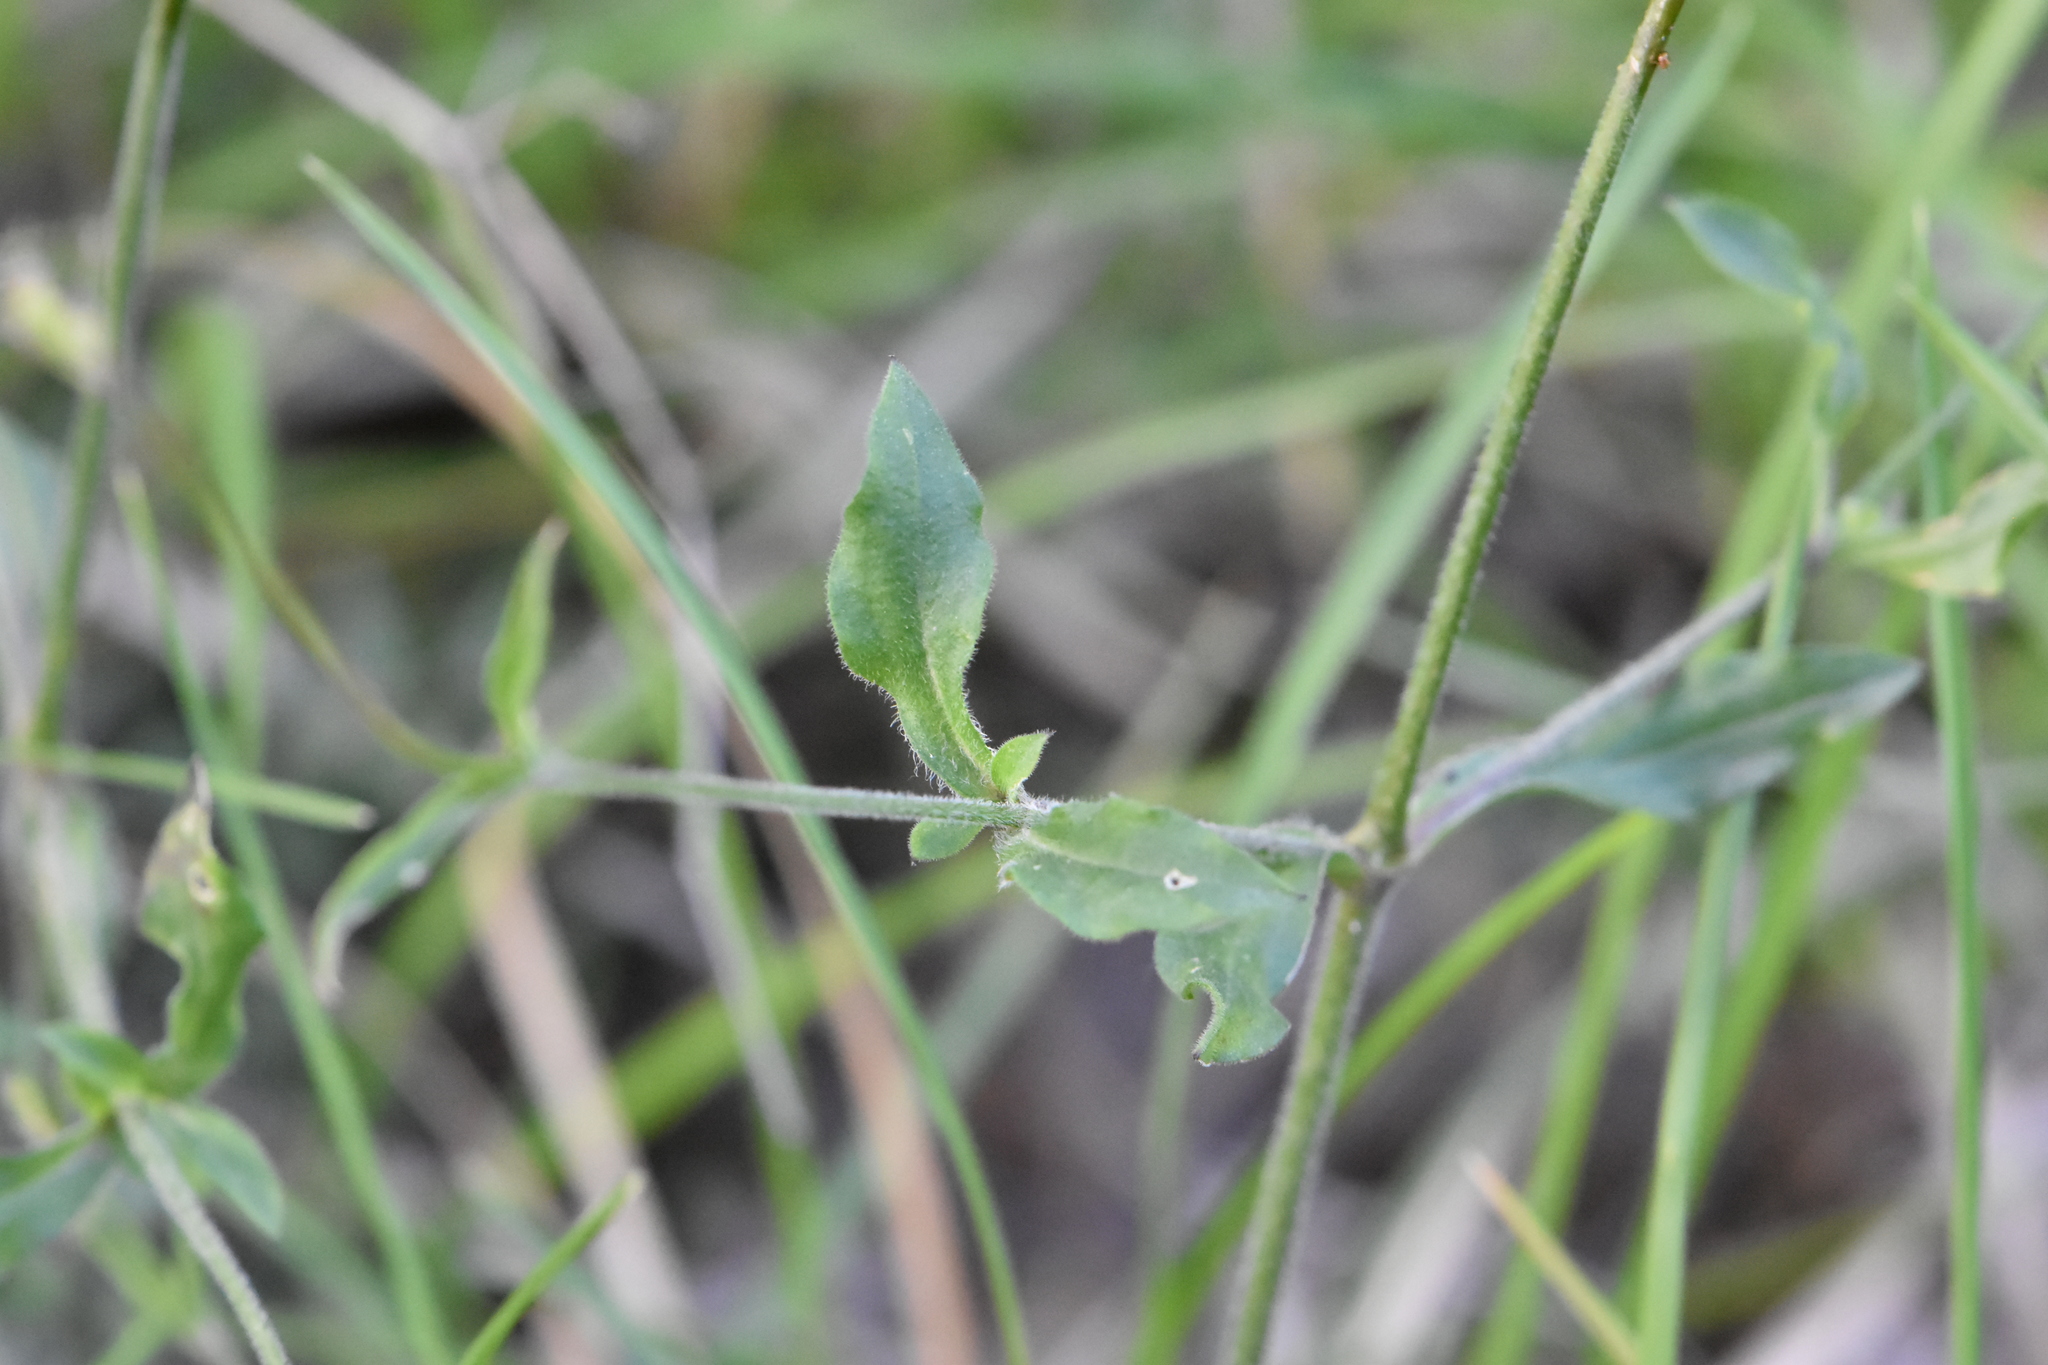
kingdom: Plantae
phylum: Tracheophyta
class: Magnoliopsida
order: Caryophyllales
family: Caryophyllaceae
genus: Silene
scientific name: Silene italica
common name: Italian catchfly
